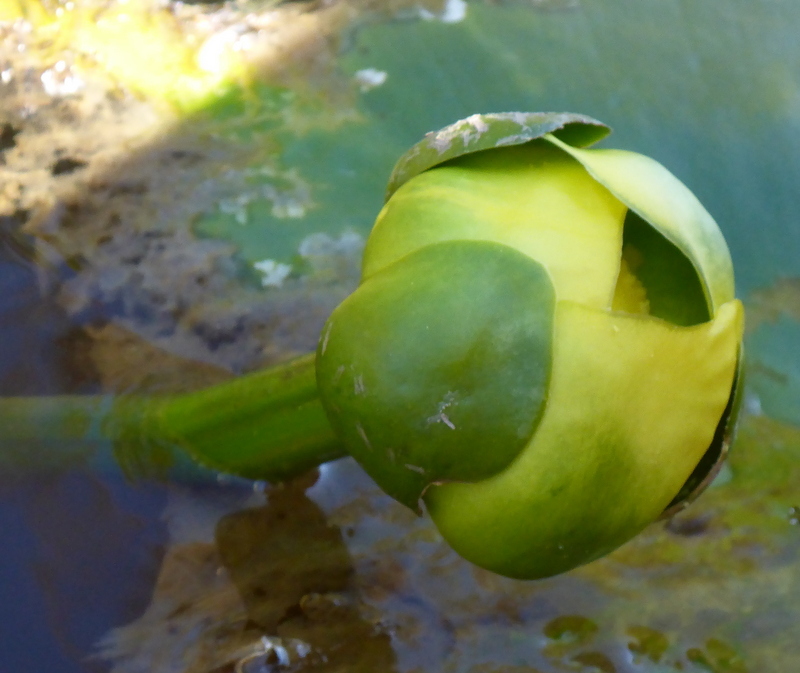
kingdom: Plantae
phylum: Tracheophyta
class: Magnoliopsida
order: Nymphaeales
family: Nymphaeaceae
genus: Nuphar
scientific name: Nuphar advena
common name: Spatter-dock
